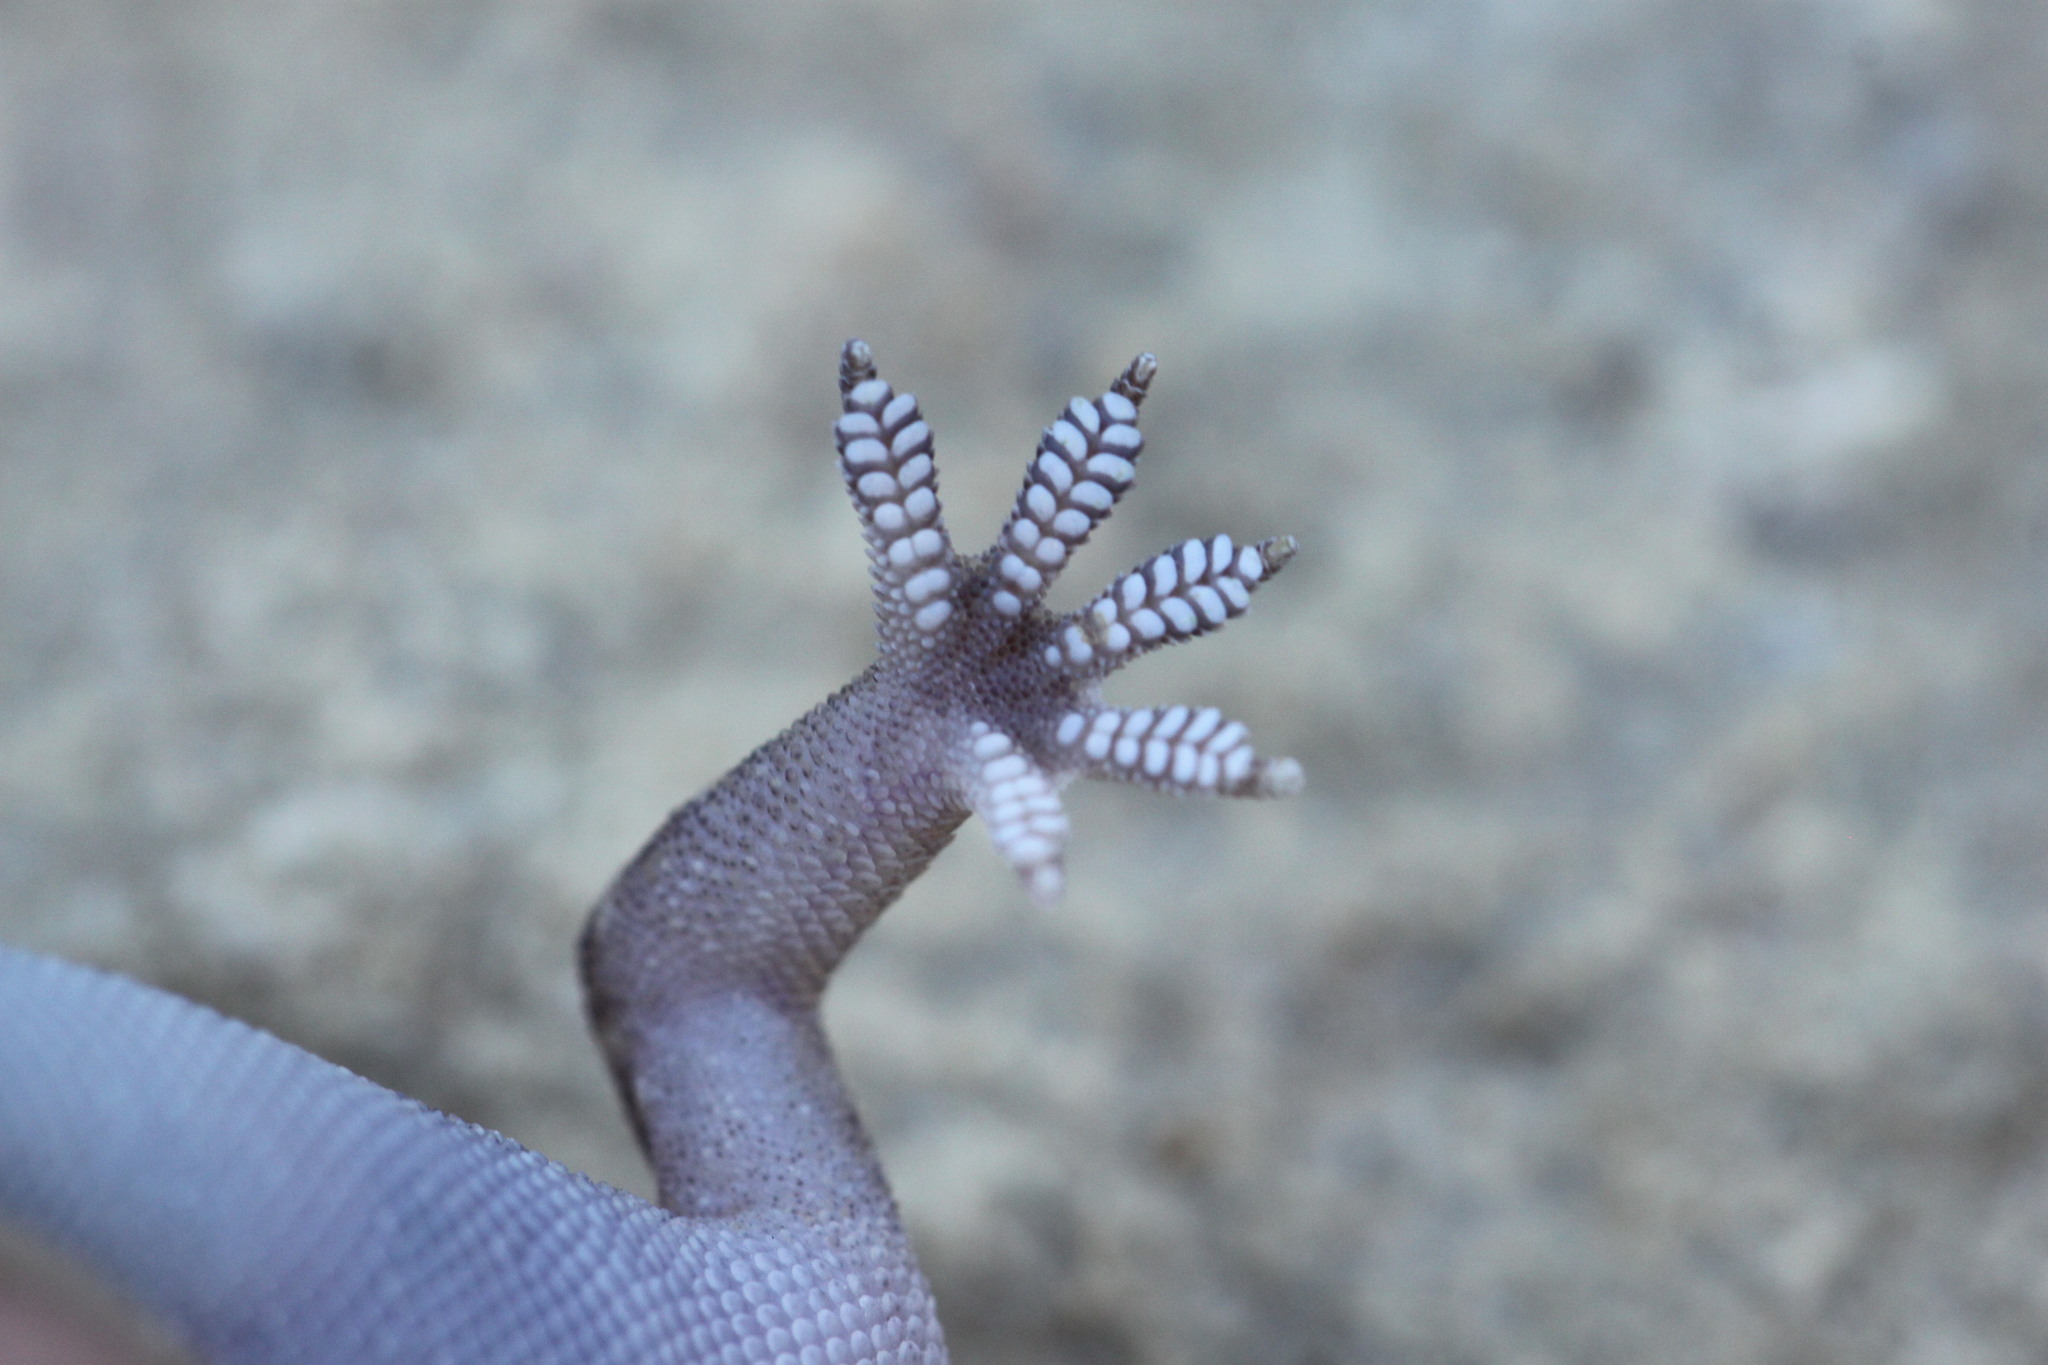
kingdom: Animalia
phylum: Chordata
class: Squamata
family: Gekkonidae
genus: Hemidactylus
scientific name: Hemidactylus turcicus
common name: Turkish gecko
